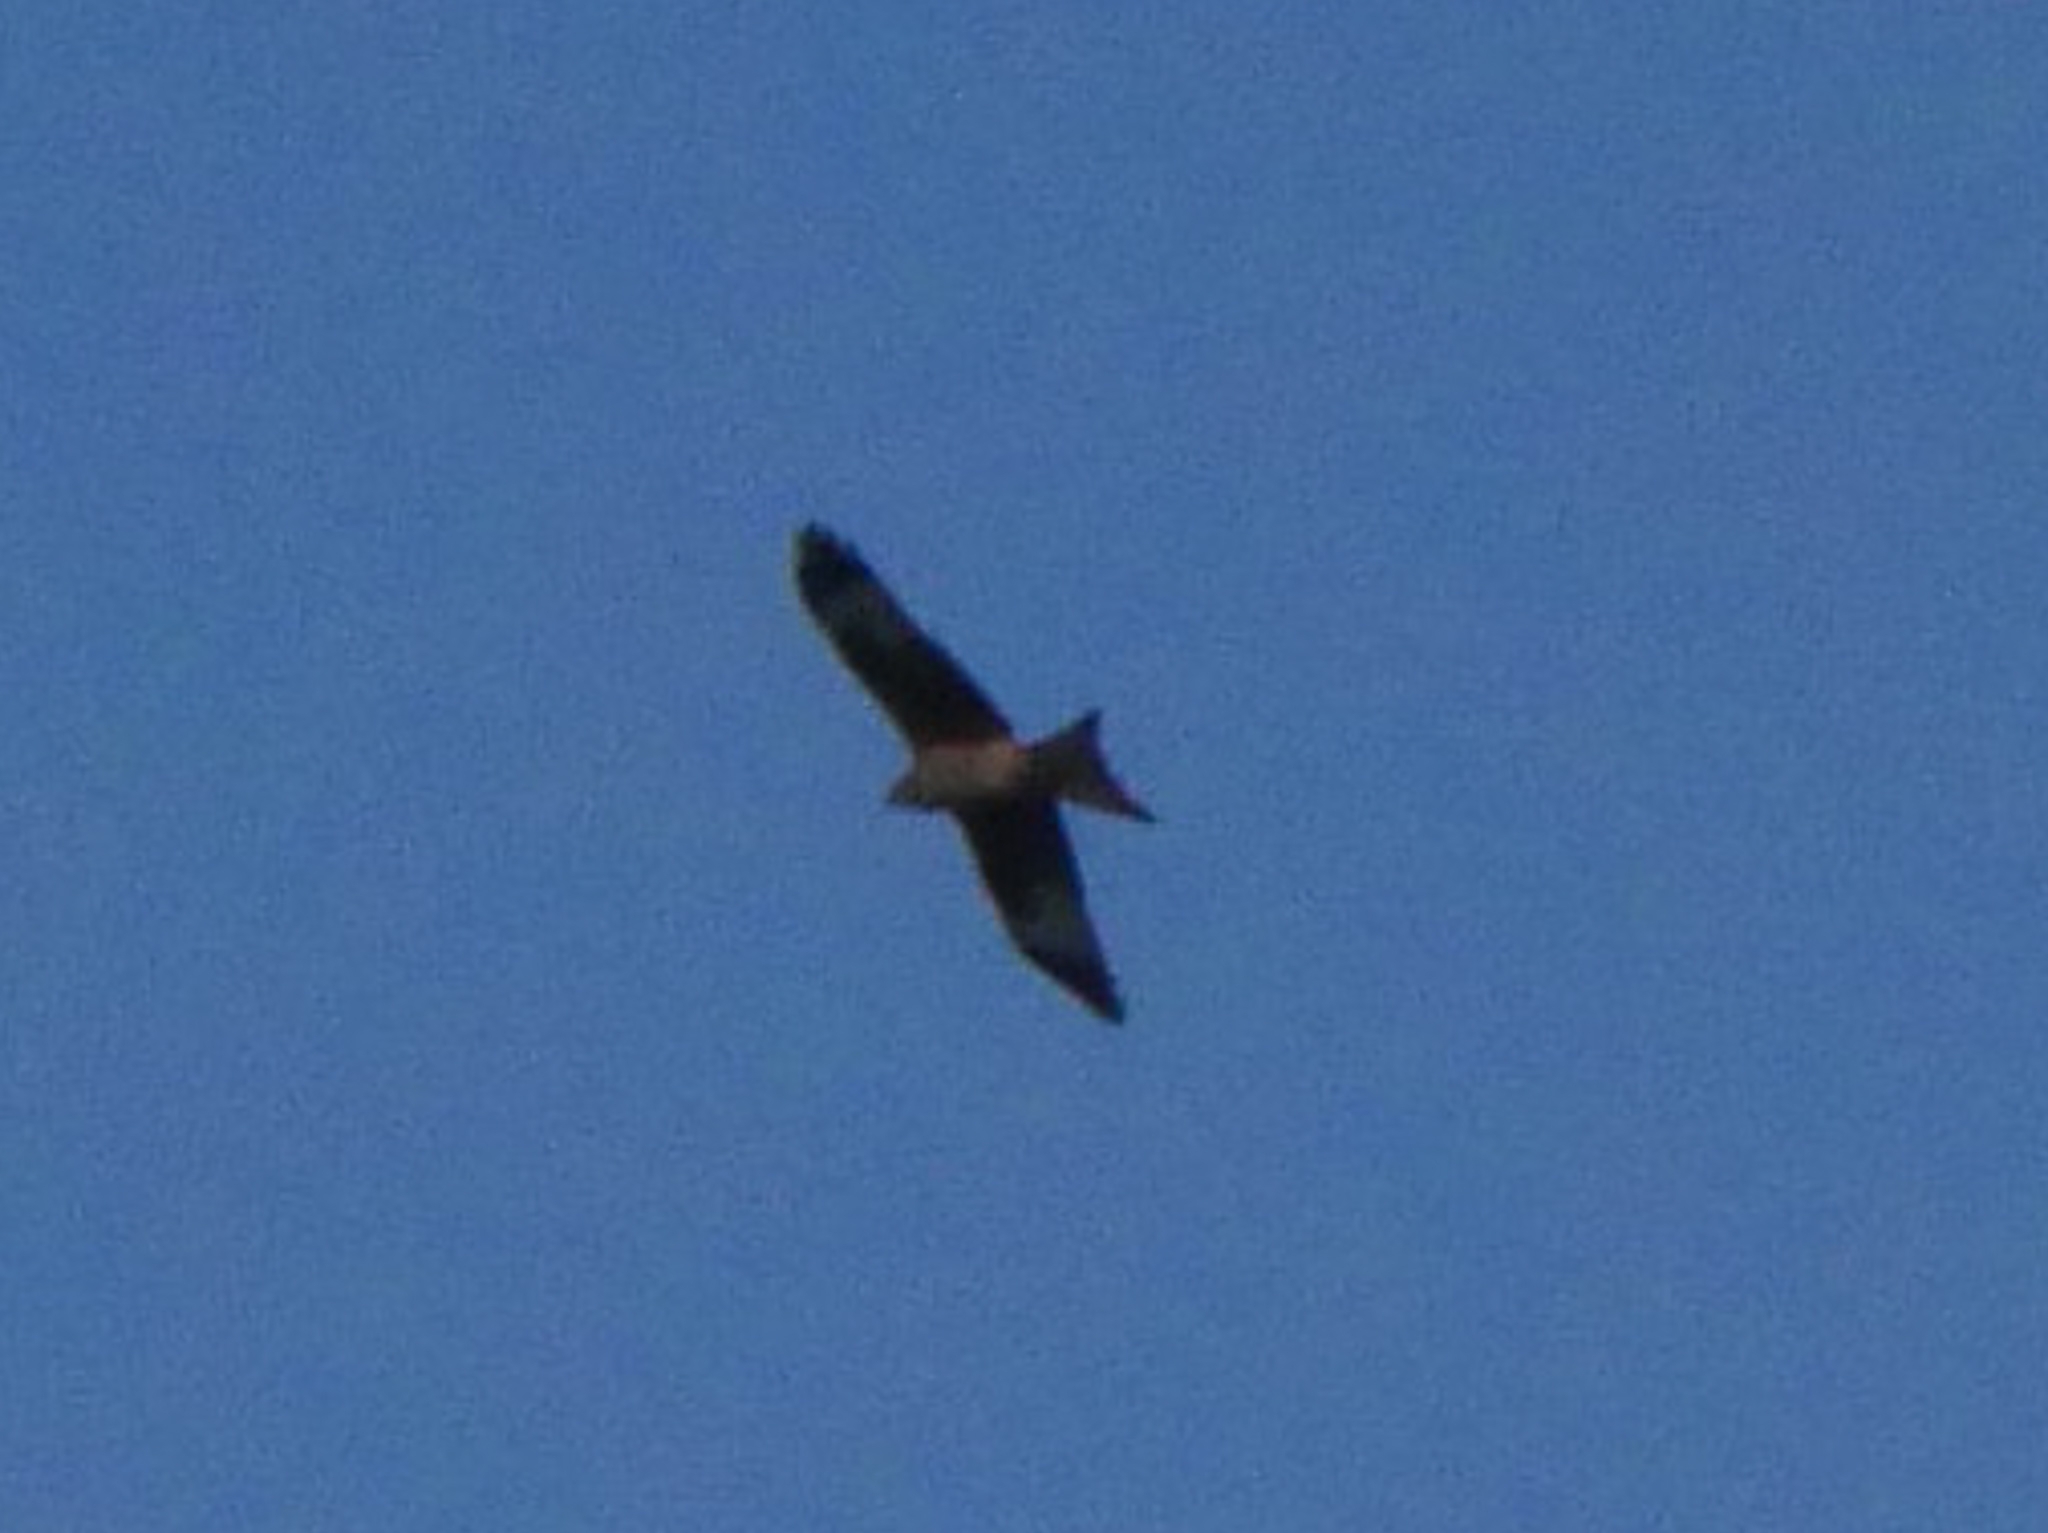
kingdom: Animalia
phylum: Chordata
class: Aves
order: Accipitriformes
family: Accipitridae
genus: Milvus
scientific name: Milvus milvus
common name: Red kite
